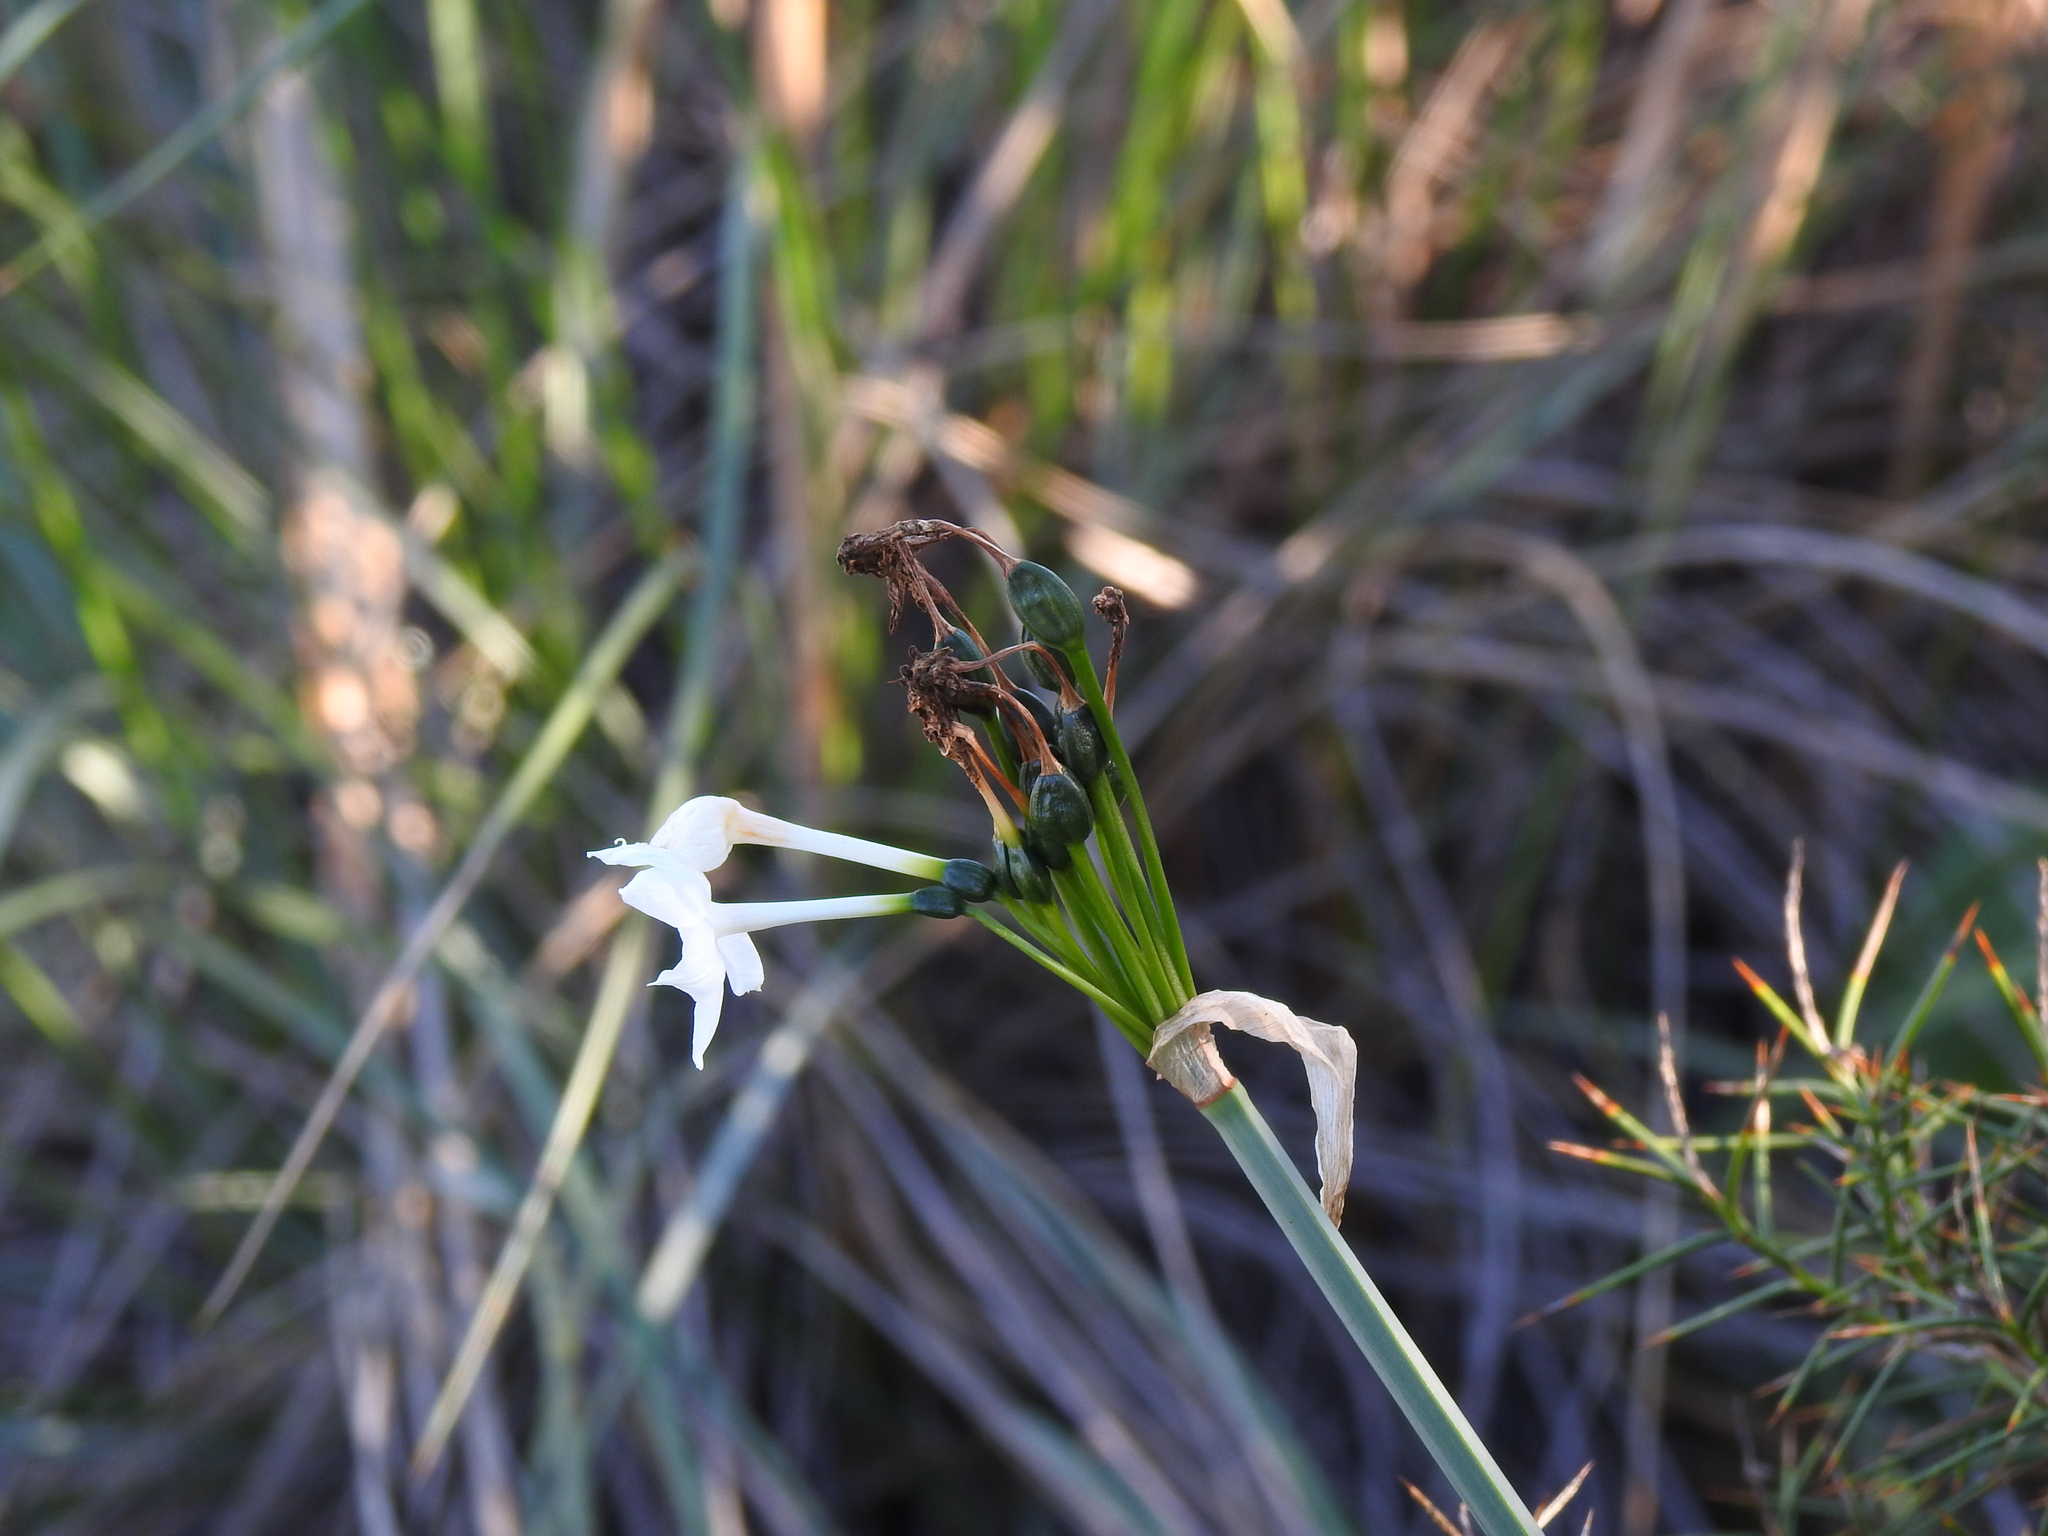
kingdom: Plantae
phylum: Tracheophyta
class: Liliopsida
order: Asparagales
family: Amaryllidaceae
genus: Narcissus
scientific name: Narcissus papyraceus
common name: Paper-white daffodil
